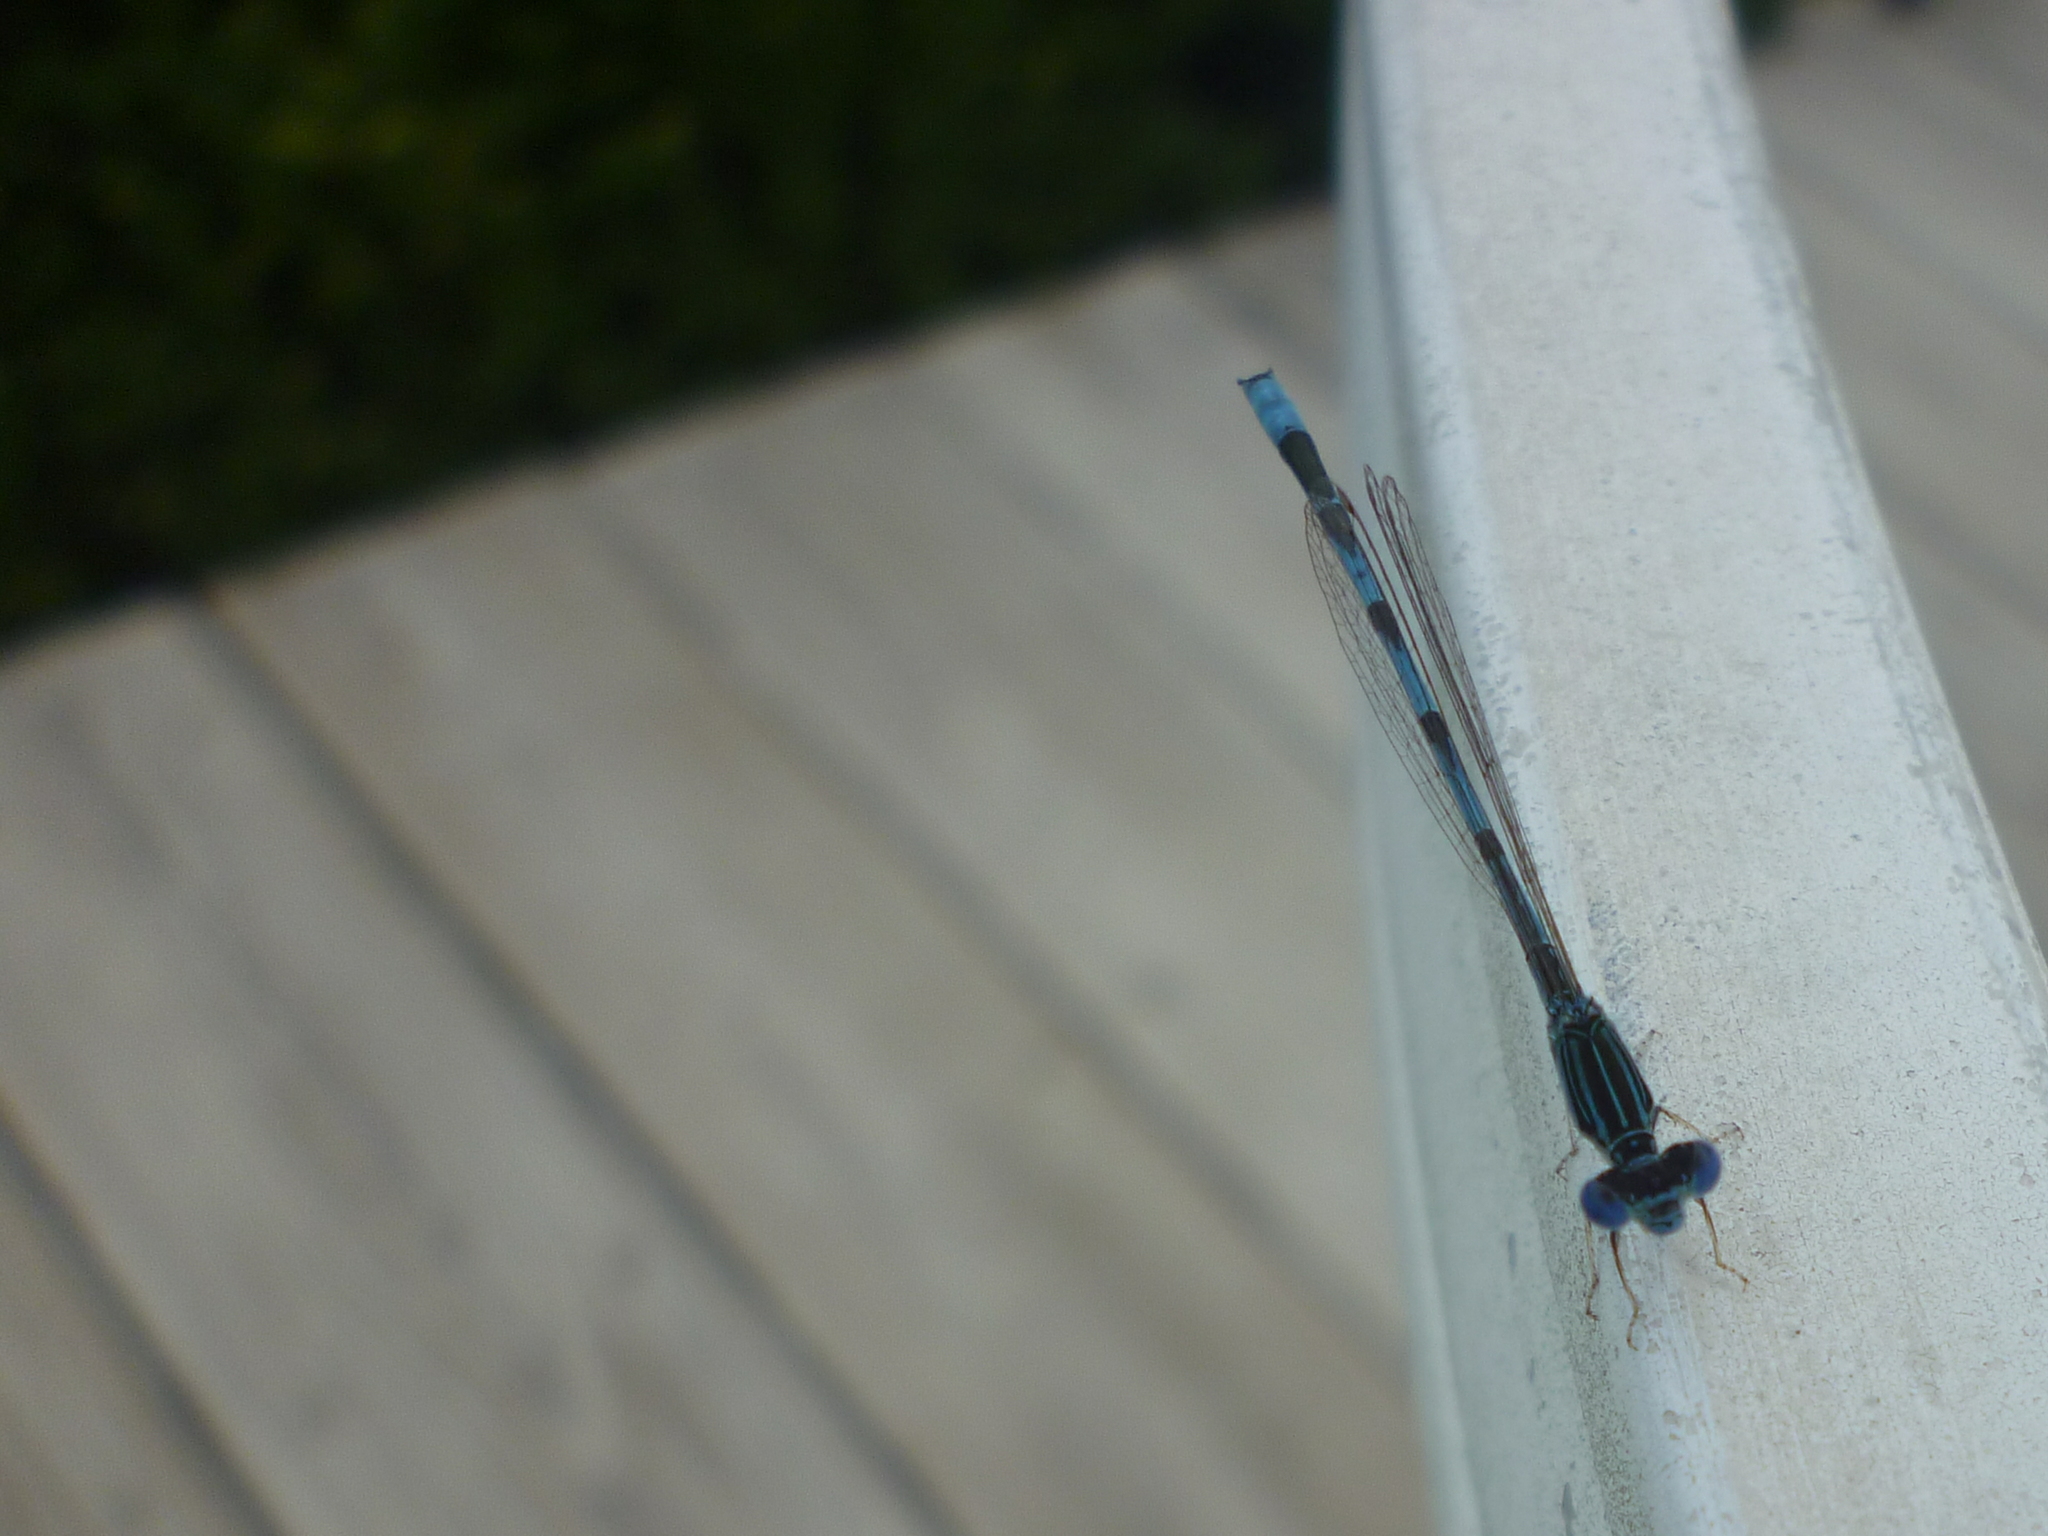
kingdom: Animalia
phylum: Arthropoda
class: Insecta
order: Odonata
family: Coenagrionidae
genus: Enallagma
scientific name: Enallagma basidens
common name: Double-striped bluet
